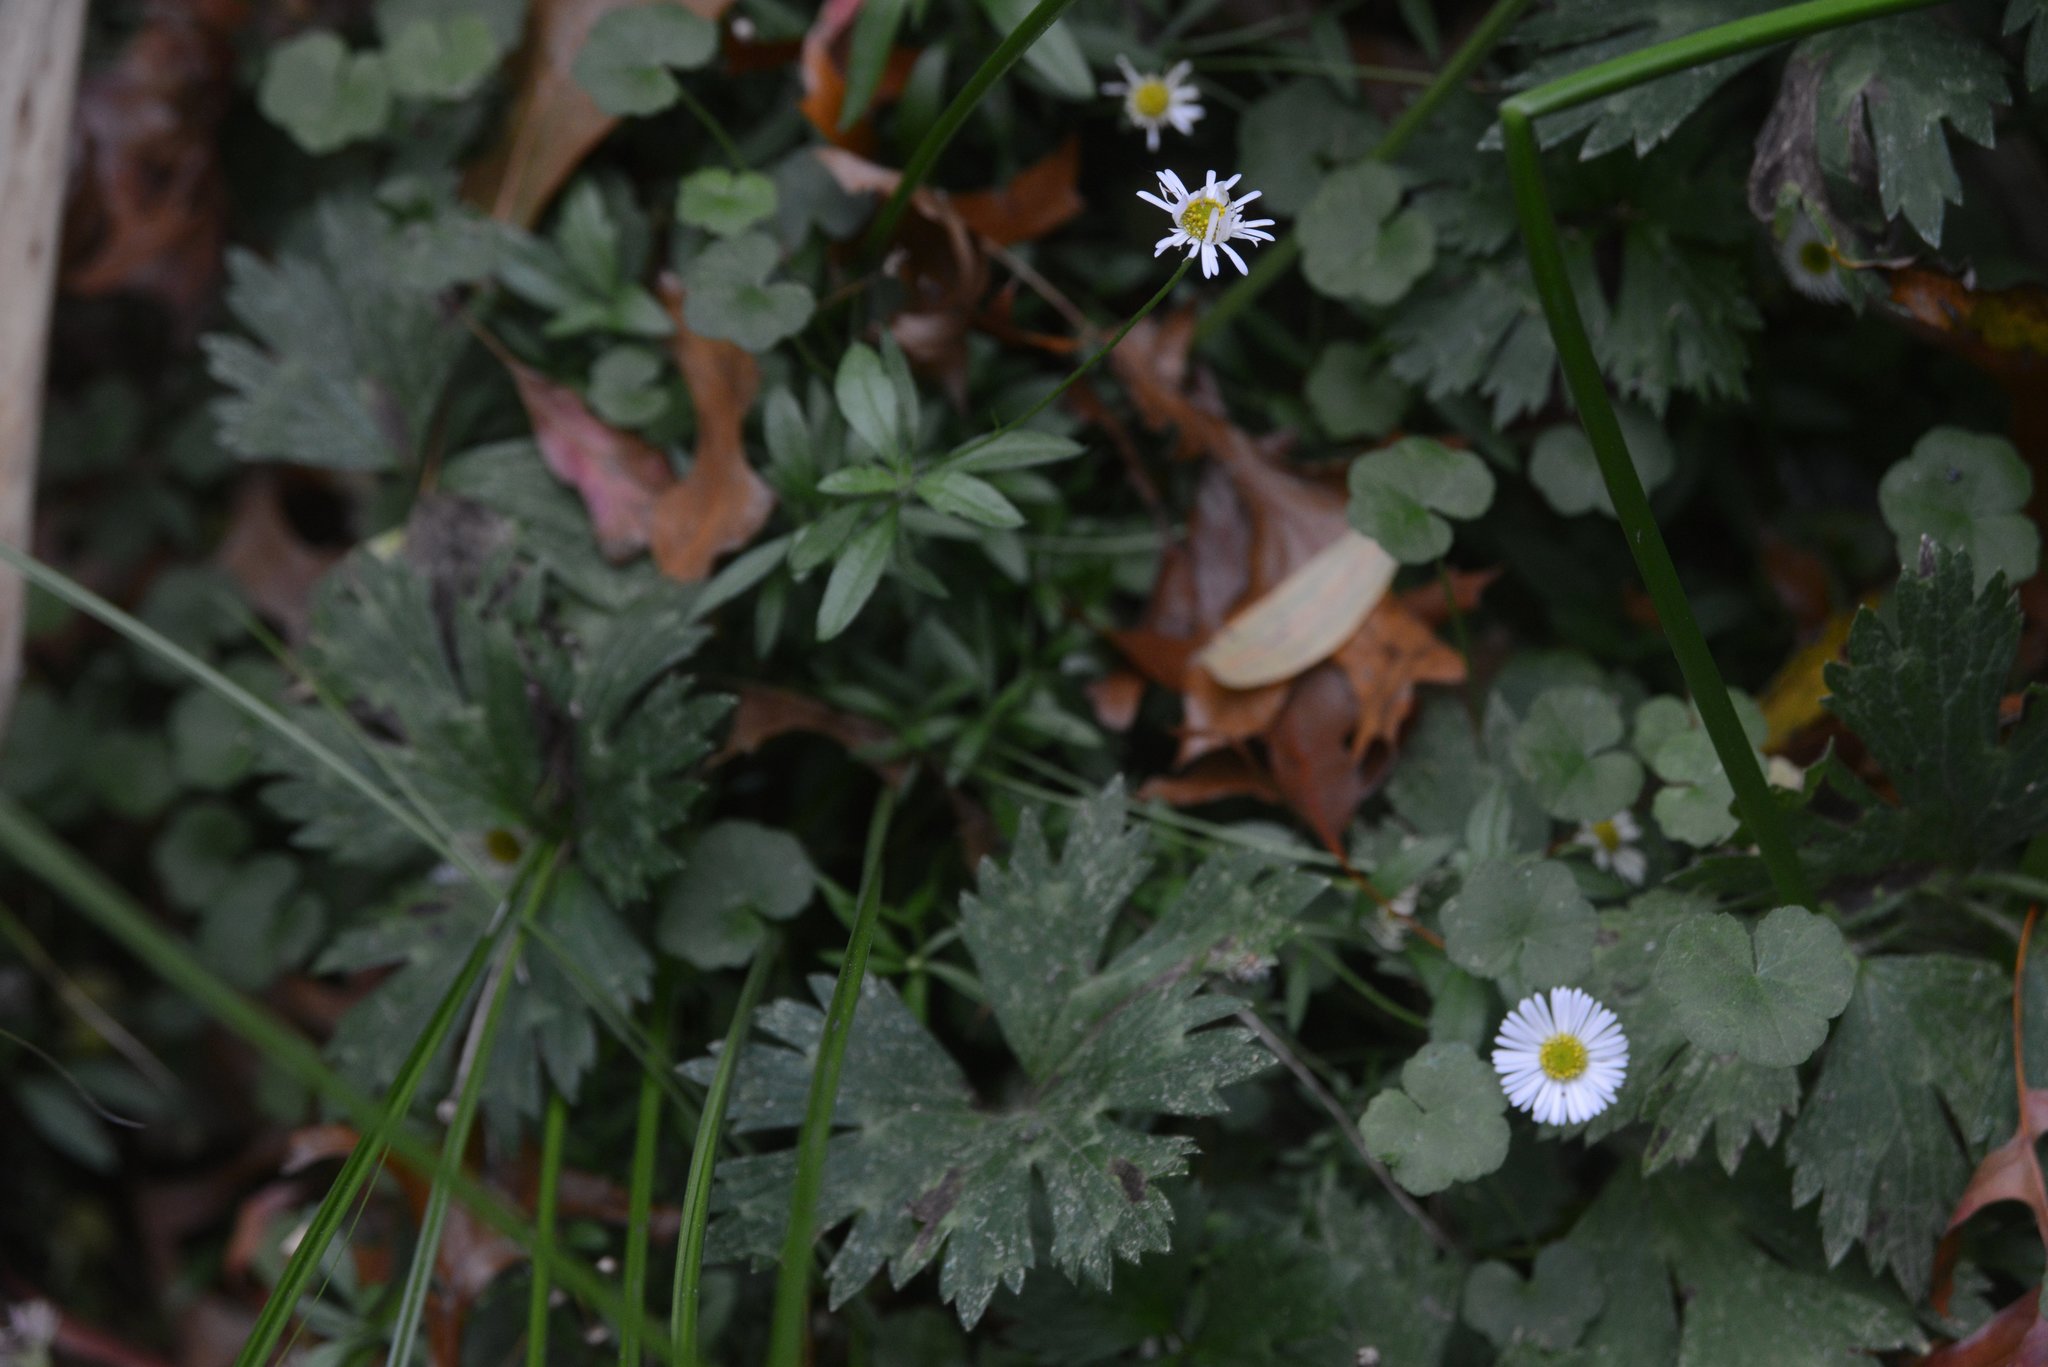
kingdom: Plantae
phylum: Tracheophyta
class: Magnoliopsida
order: Asterales
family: Asteraceae
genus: Erigeron
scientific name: Erigeron karvinskianus
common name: Mexican fleabane
